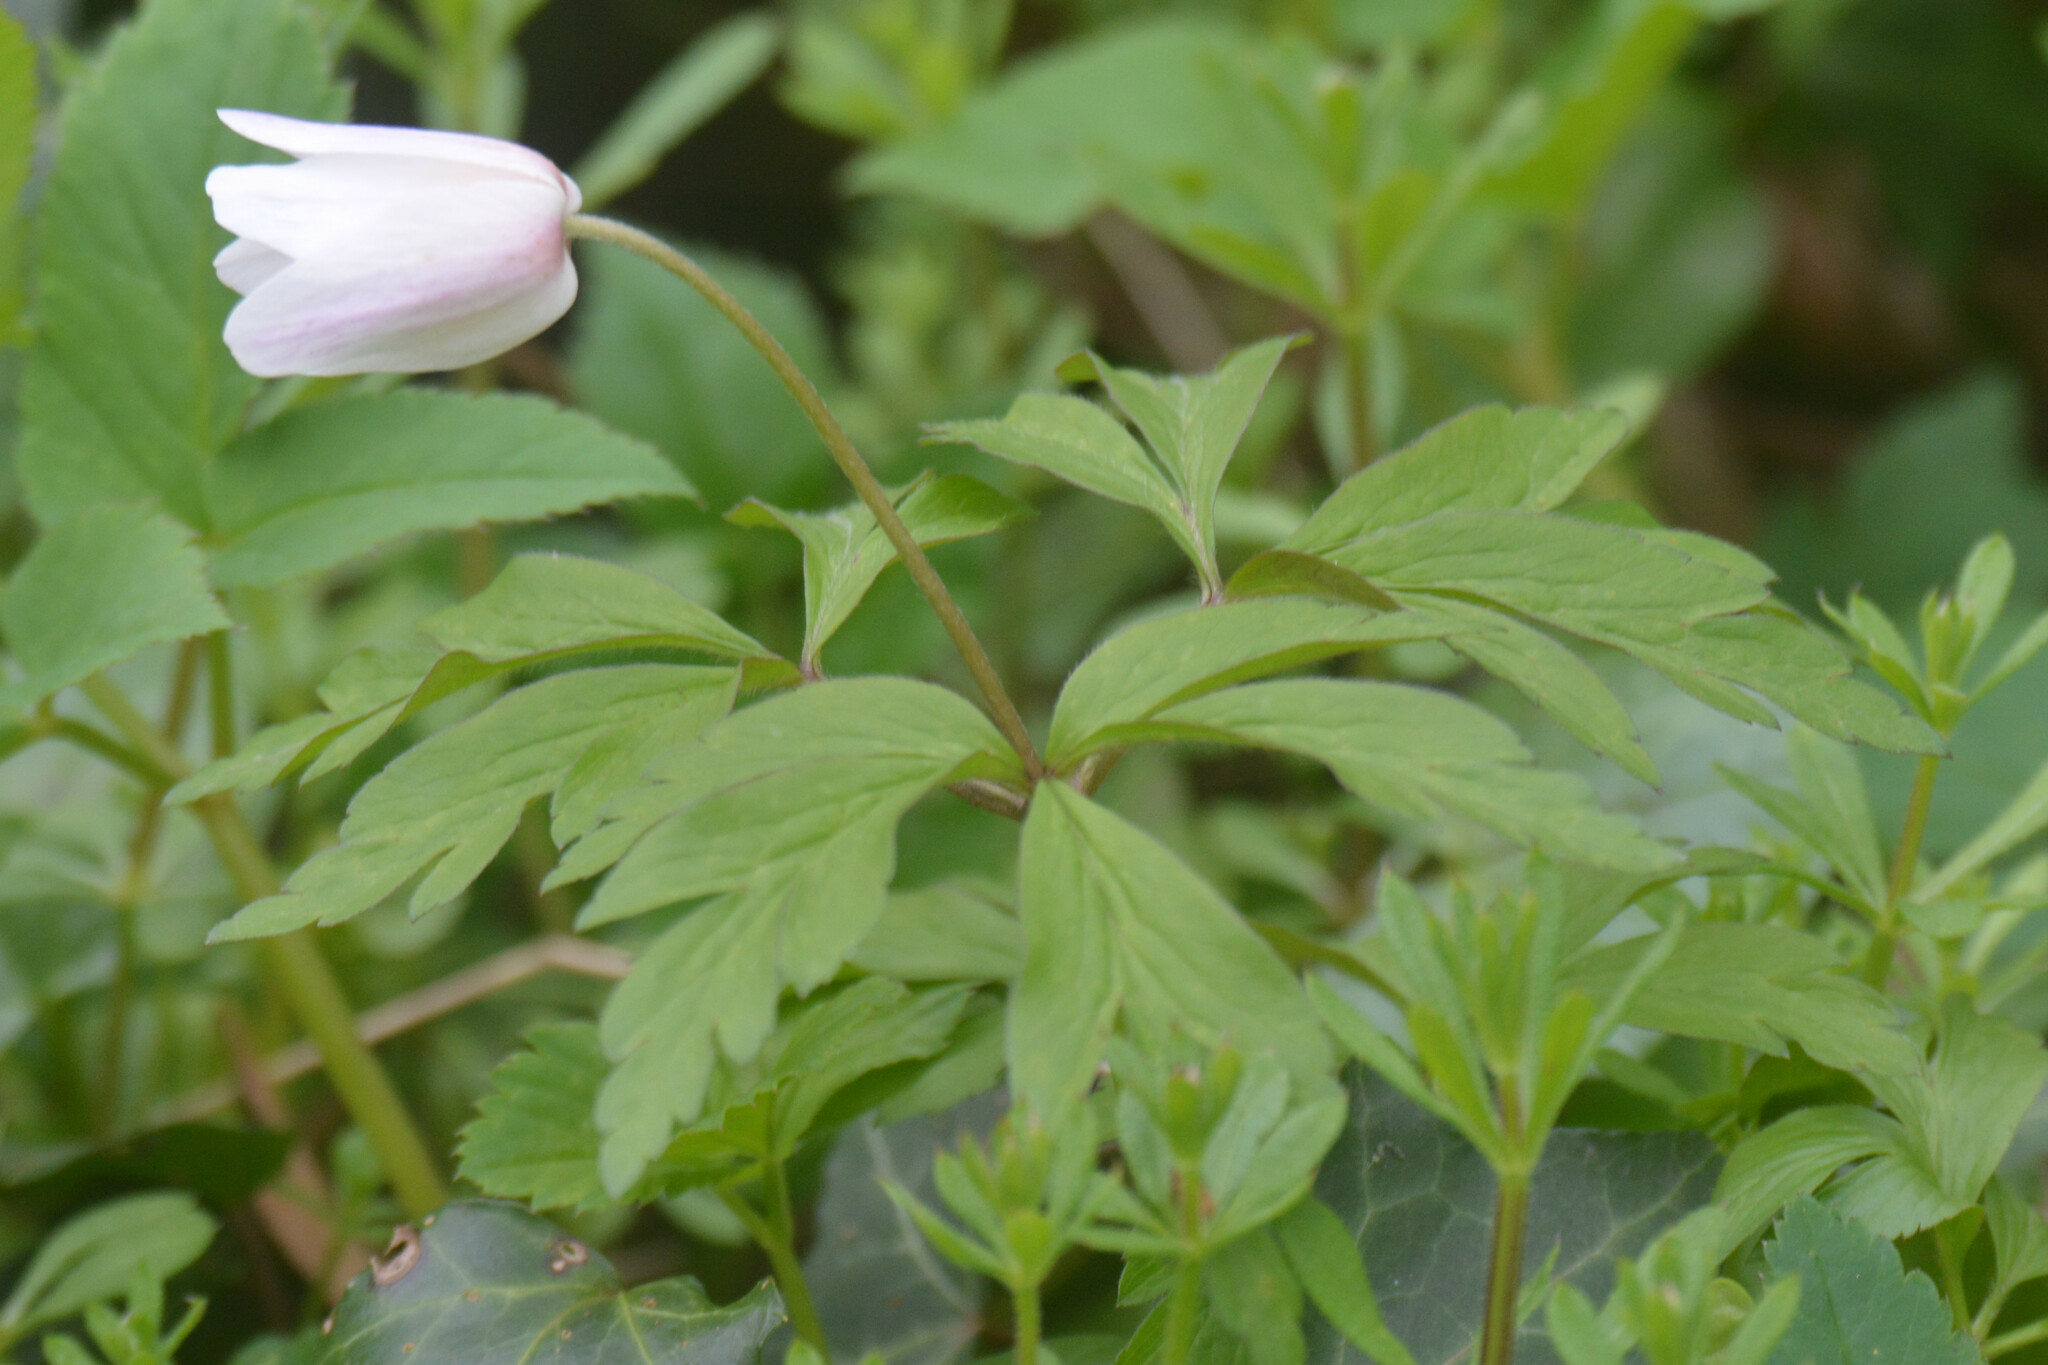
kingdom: Plantae
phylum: Tracheophyta
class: Magnoliopsida
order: Ranunculales
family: Ranunculaceae
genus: Anemone
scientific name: Anemone nemorosa
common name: Wood anemone
